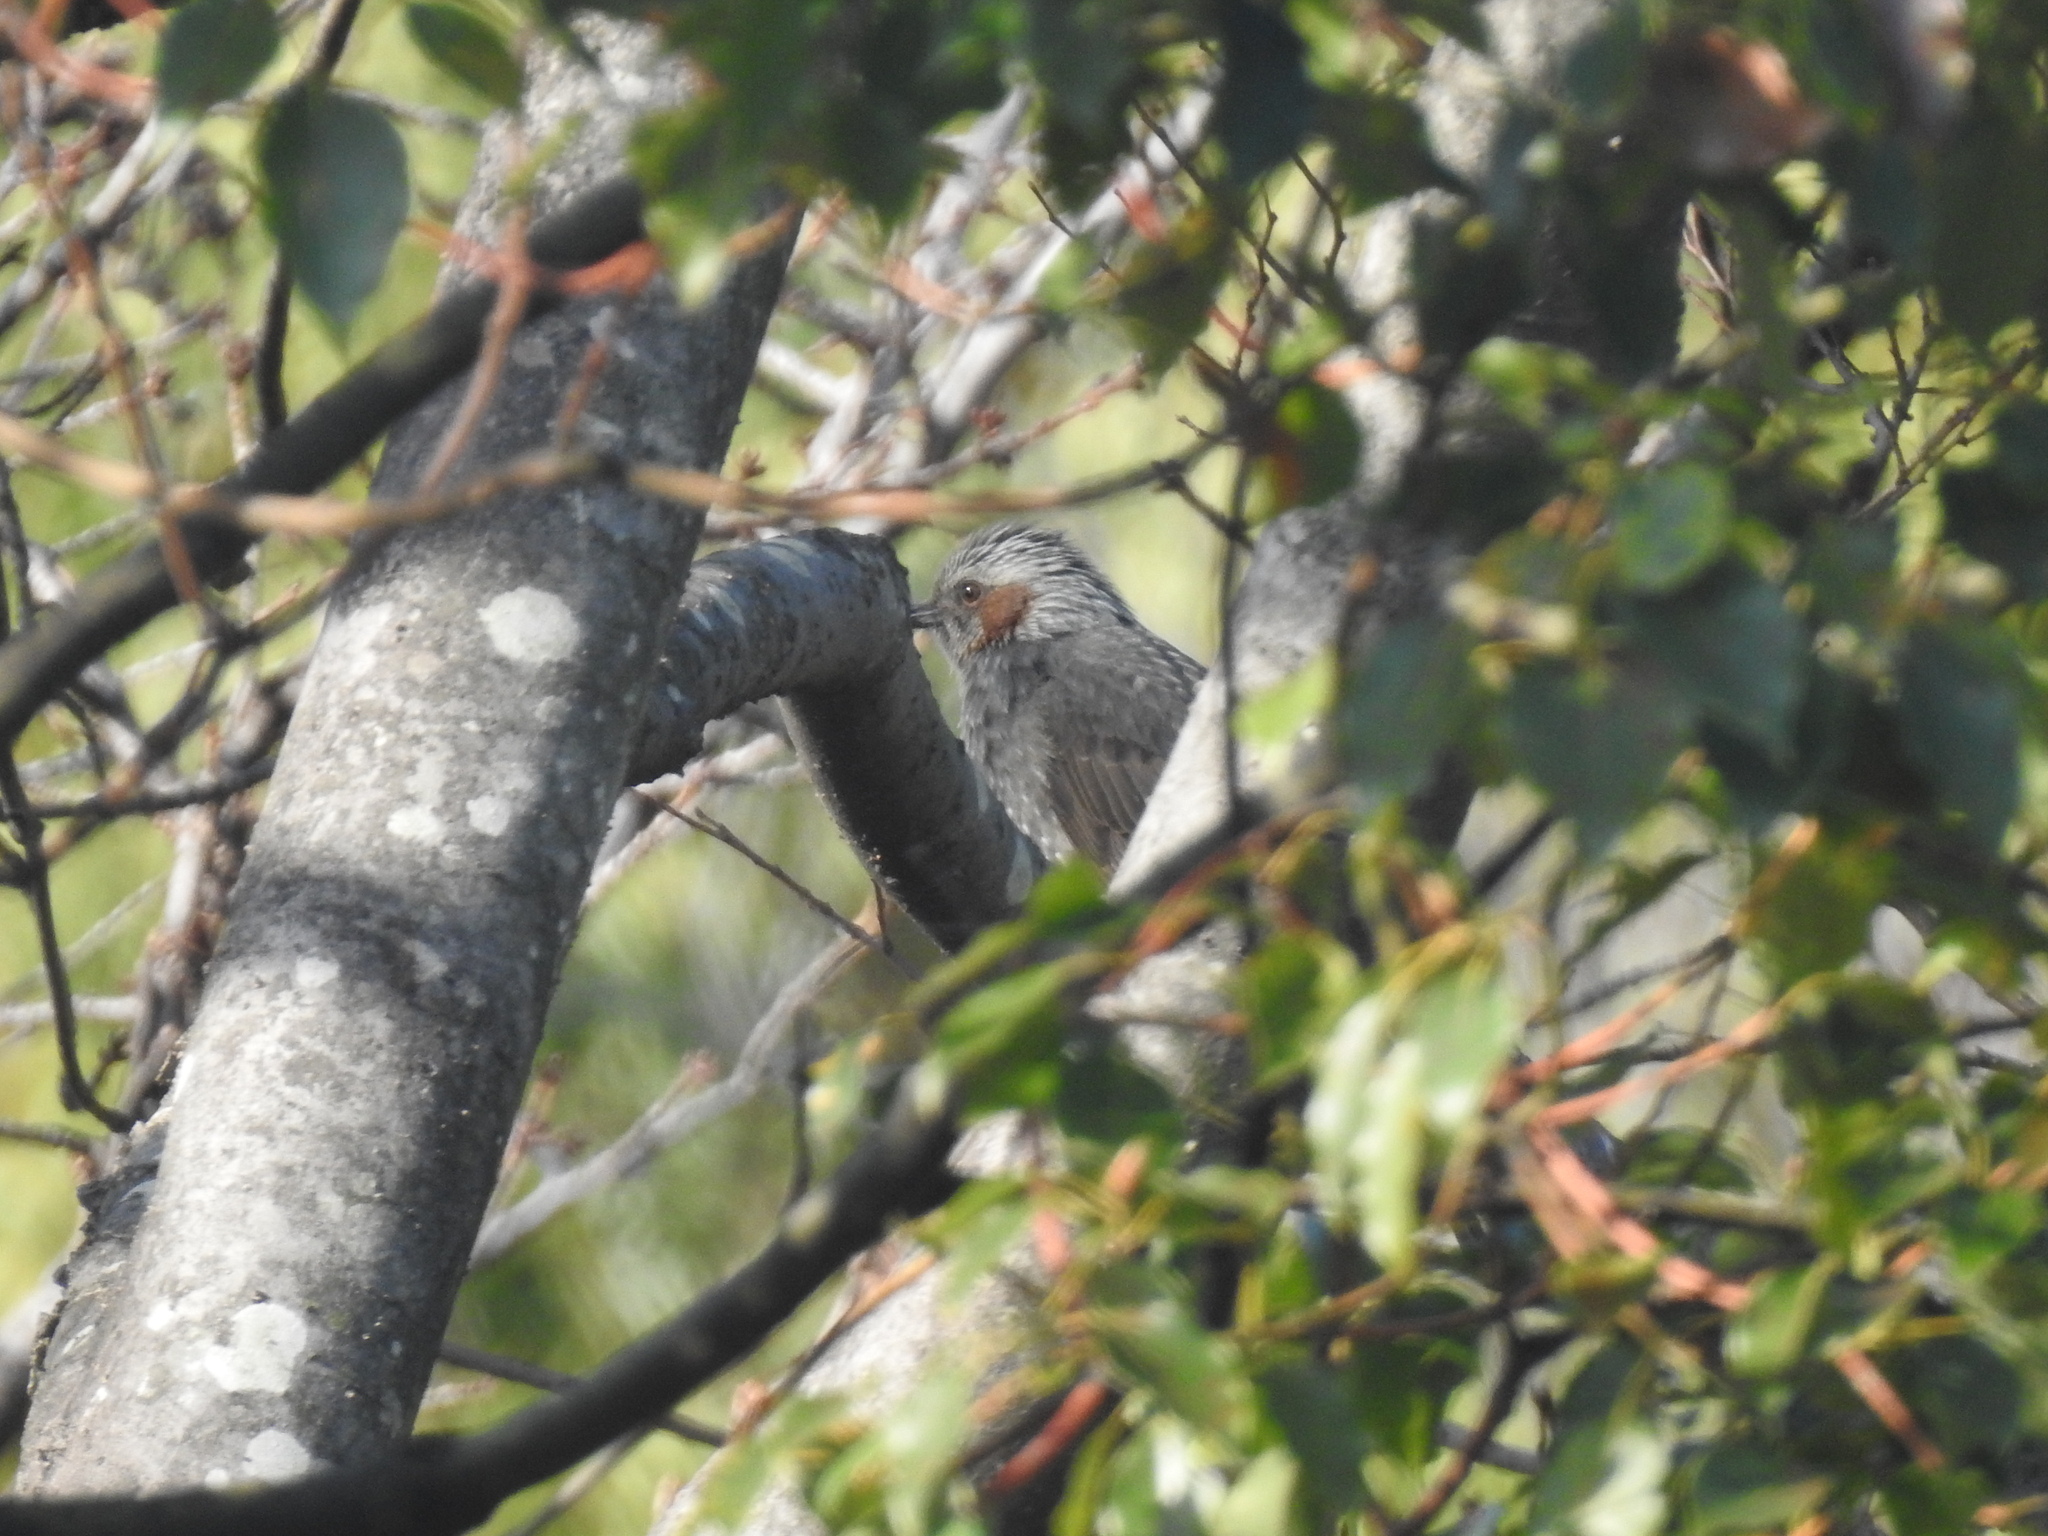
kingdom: Animalia
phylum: Chordata
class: Aves
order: Passeriformes
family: Pycnonotidae
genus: Hypsipetes
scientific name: Hypsipetes amaurotis
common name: Brown-eared bulbul
